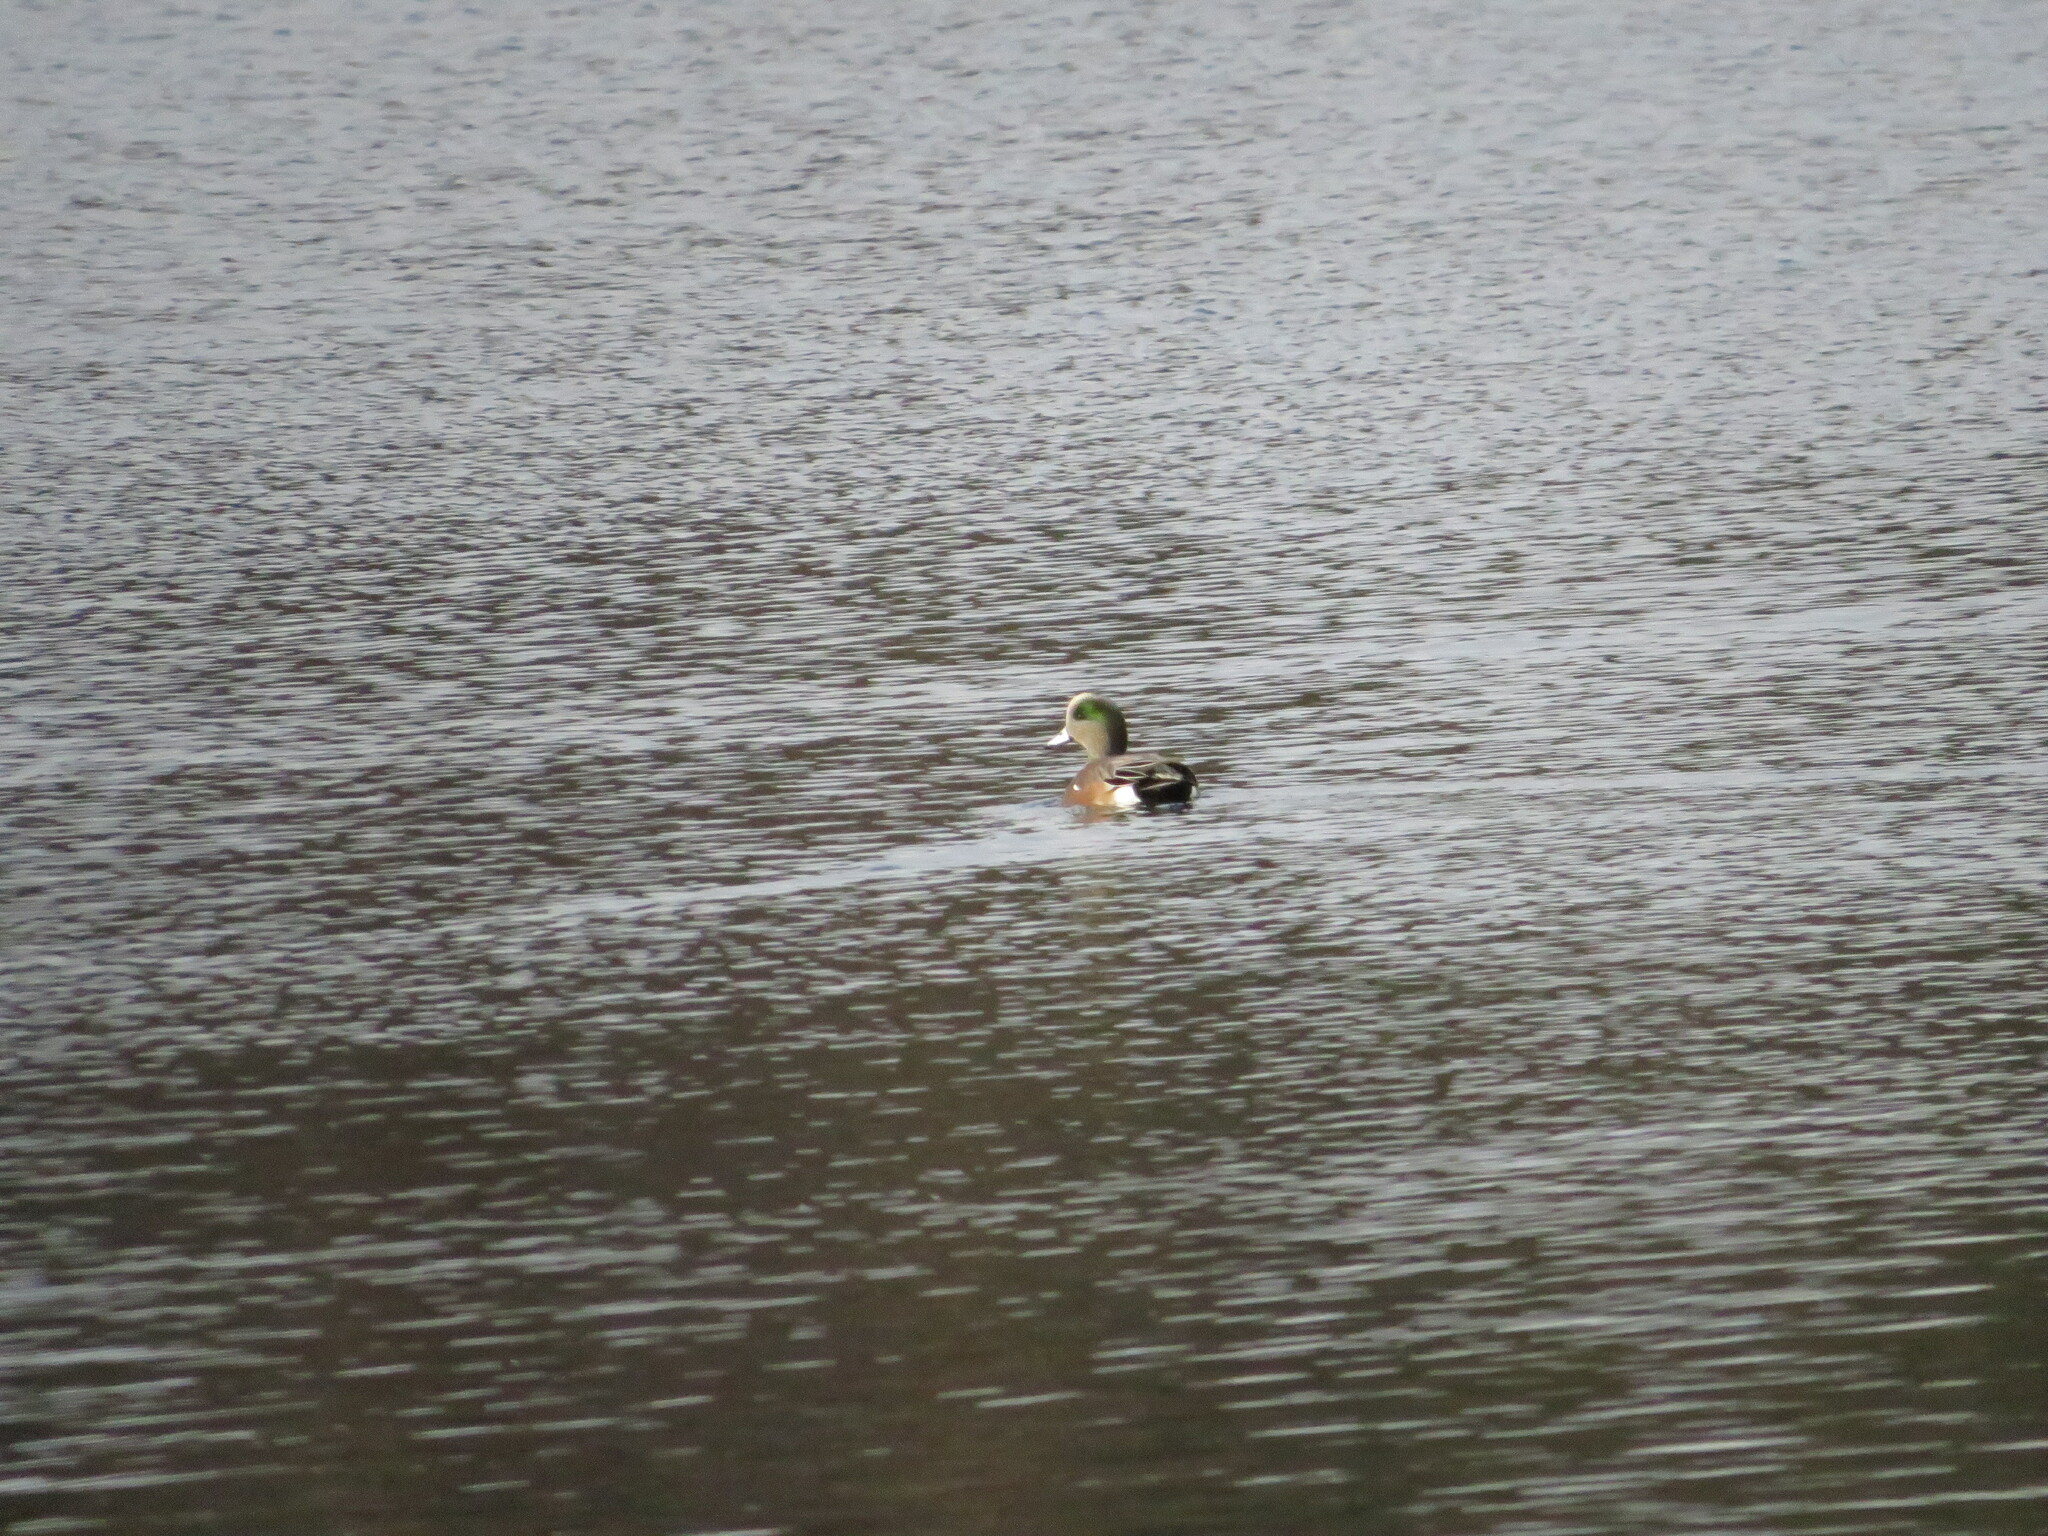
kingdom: Animalia
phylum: Chordata
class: Aves
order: Anseriformes
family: Anatidae
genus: Mareca
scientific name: Mareca americana
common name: American wigeon
